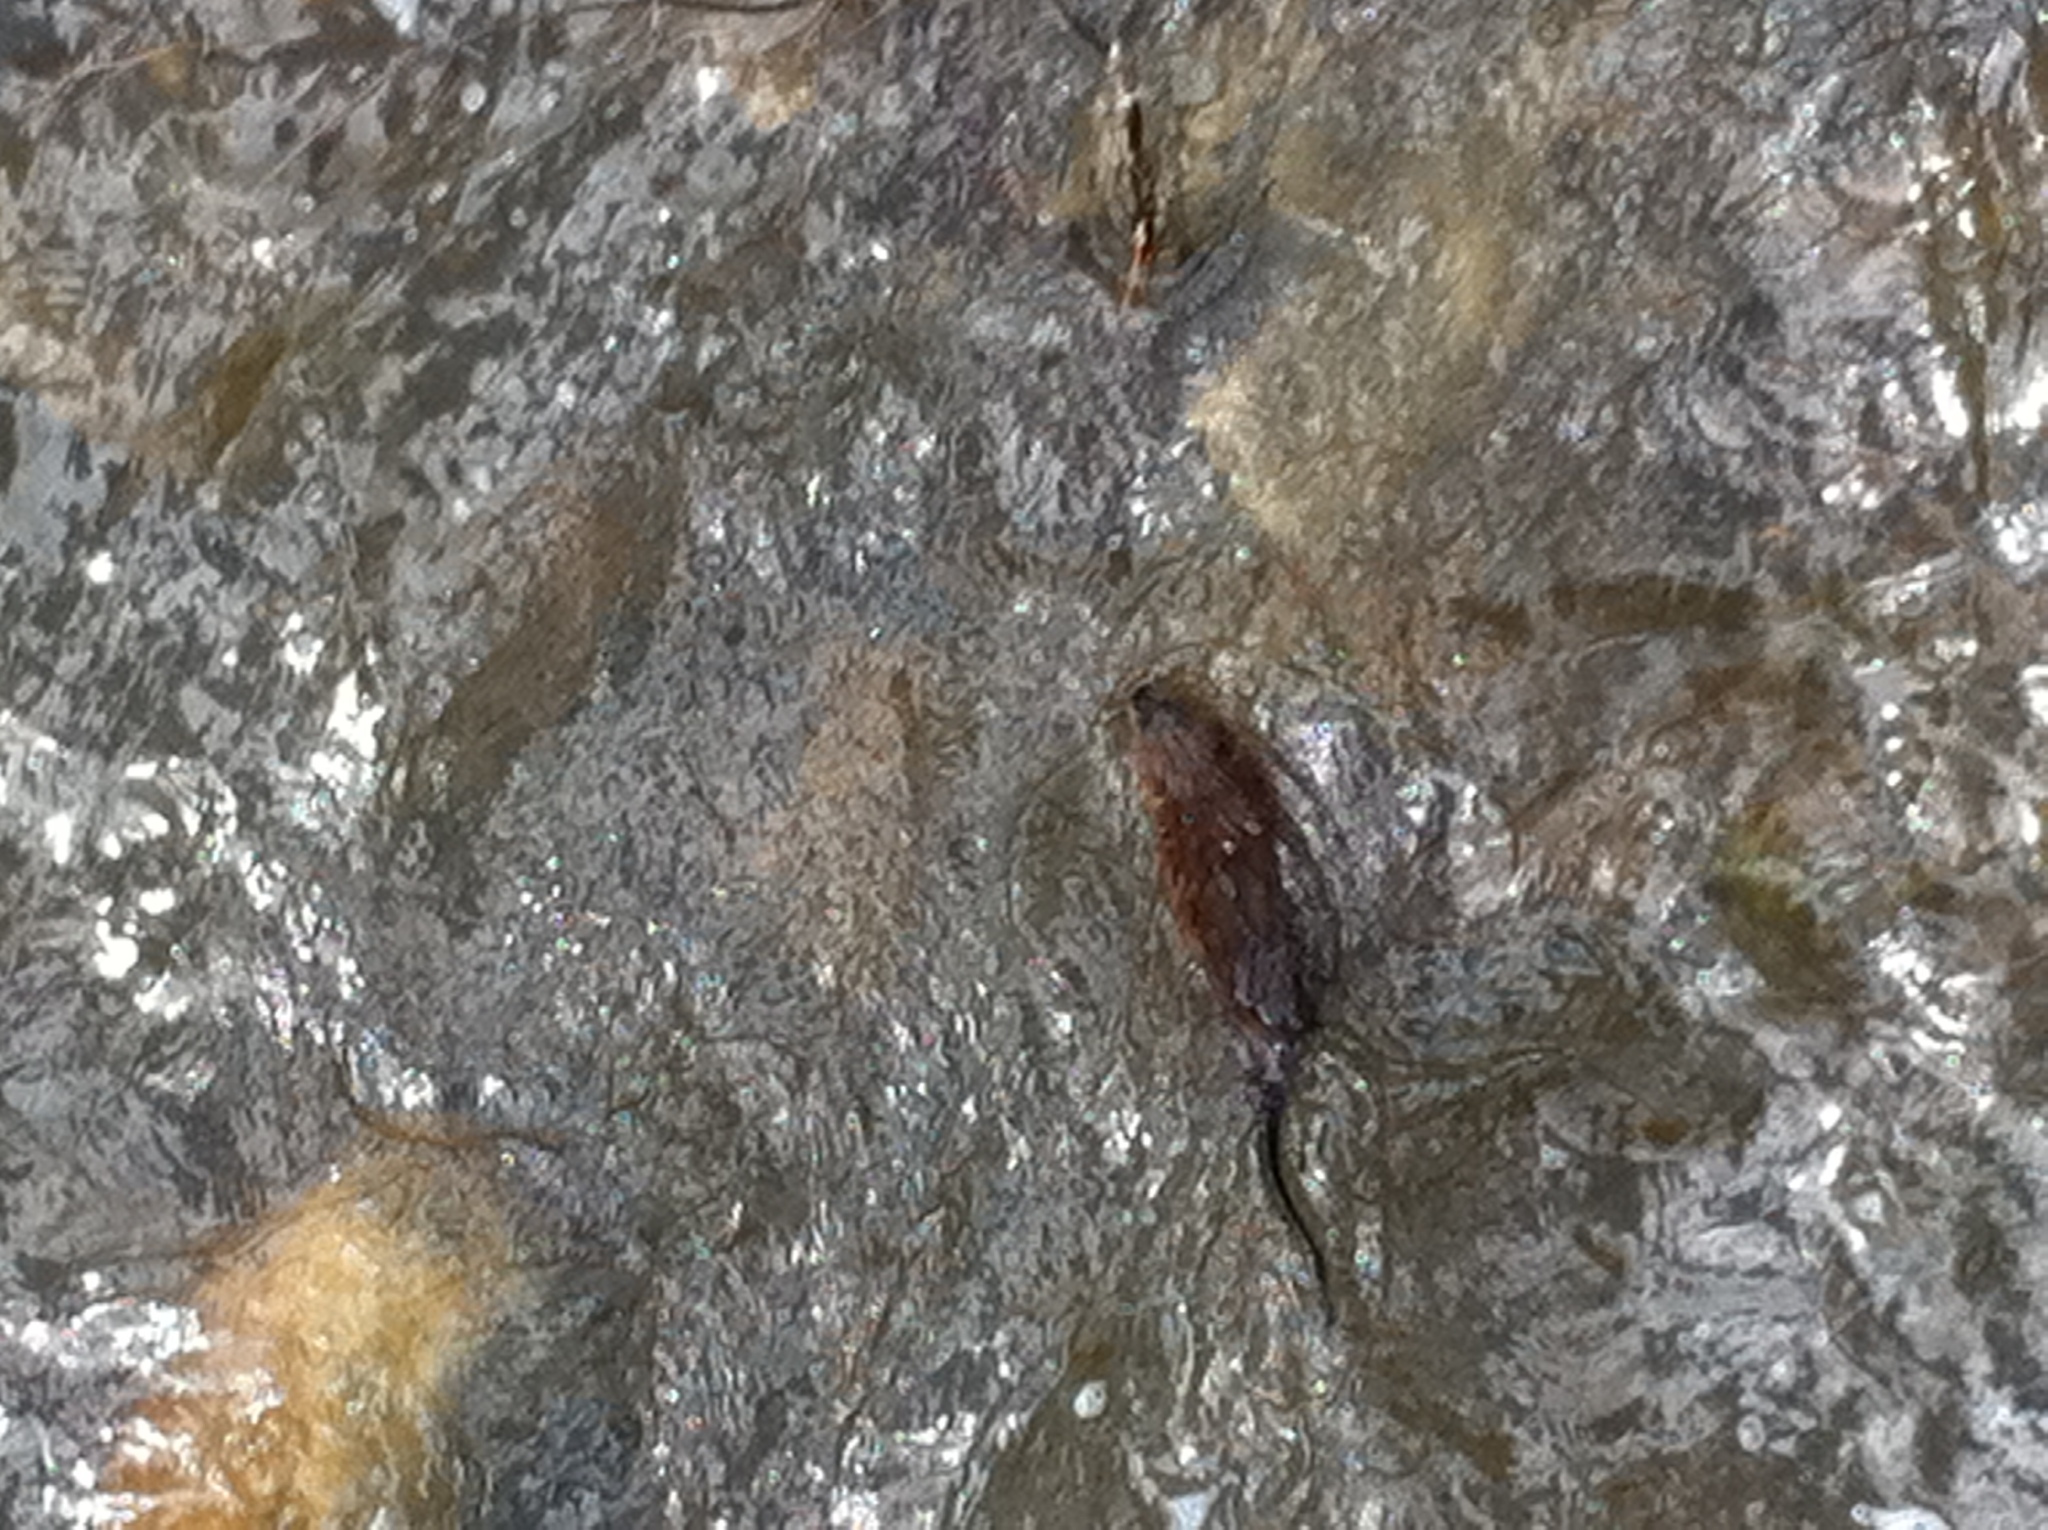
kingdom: Animalia
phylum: Chordata
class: Mammalia
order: Rodentia
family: Cricetidae
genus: Ondatra
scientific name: Ondatra zibethicus
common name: Muskrat
